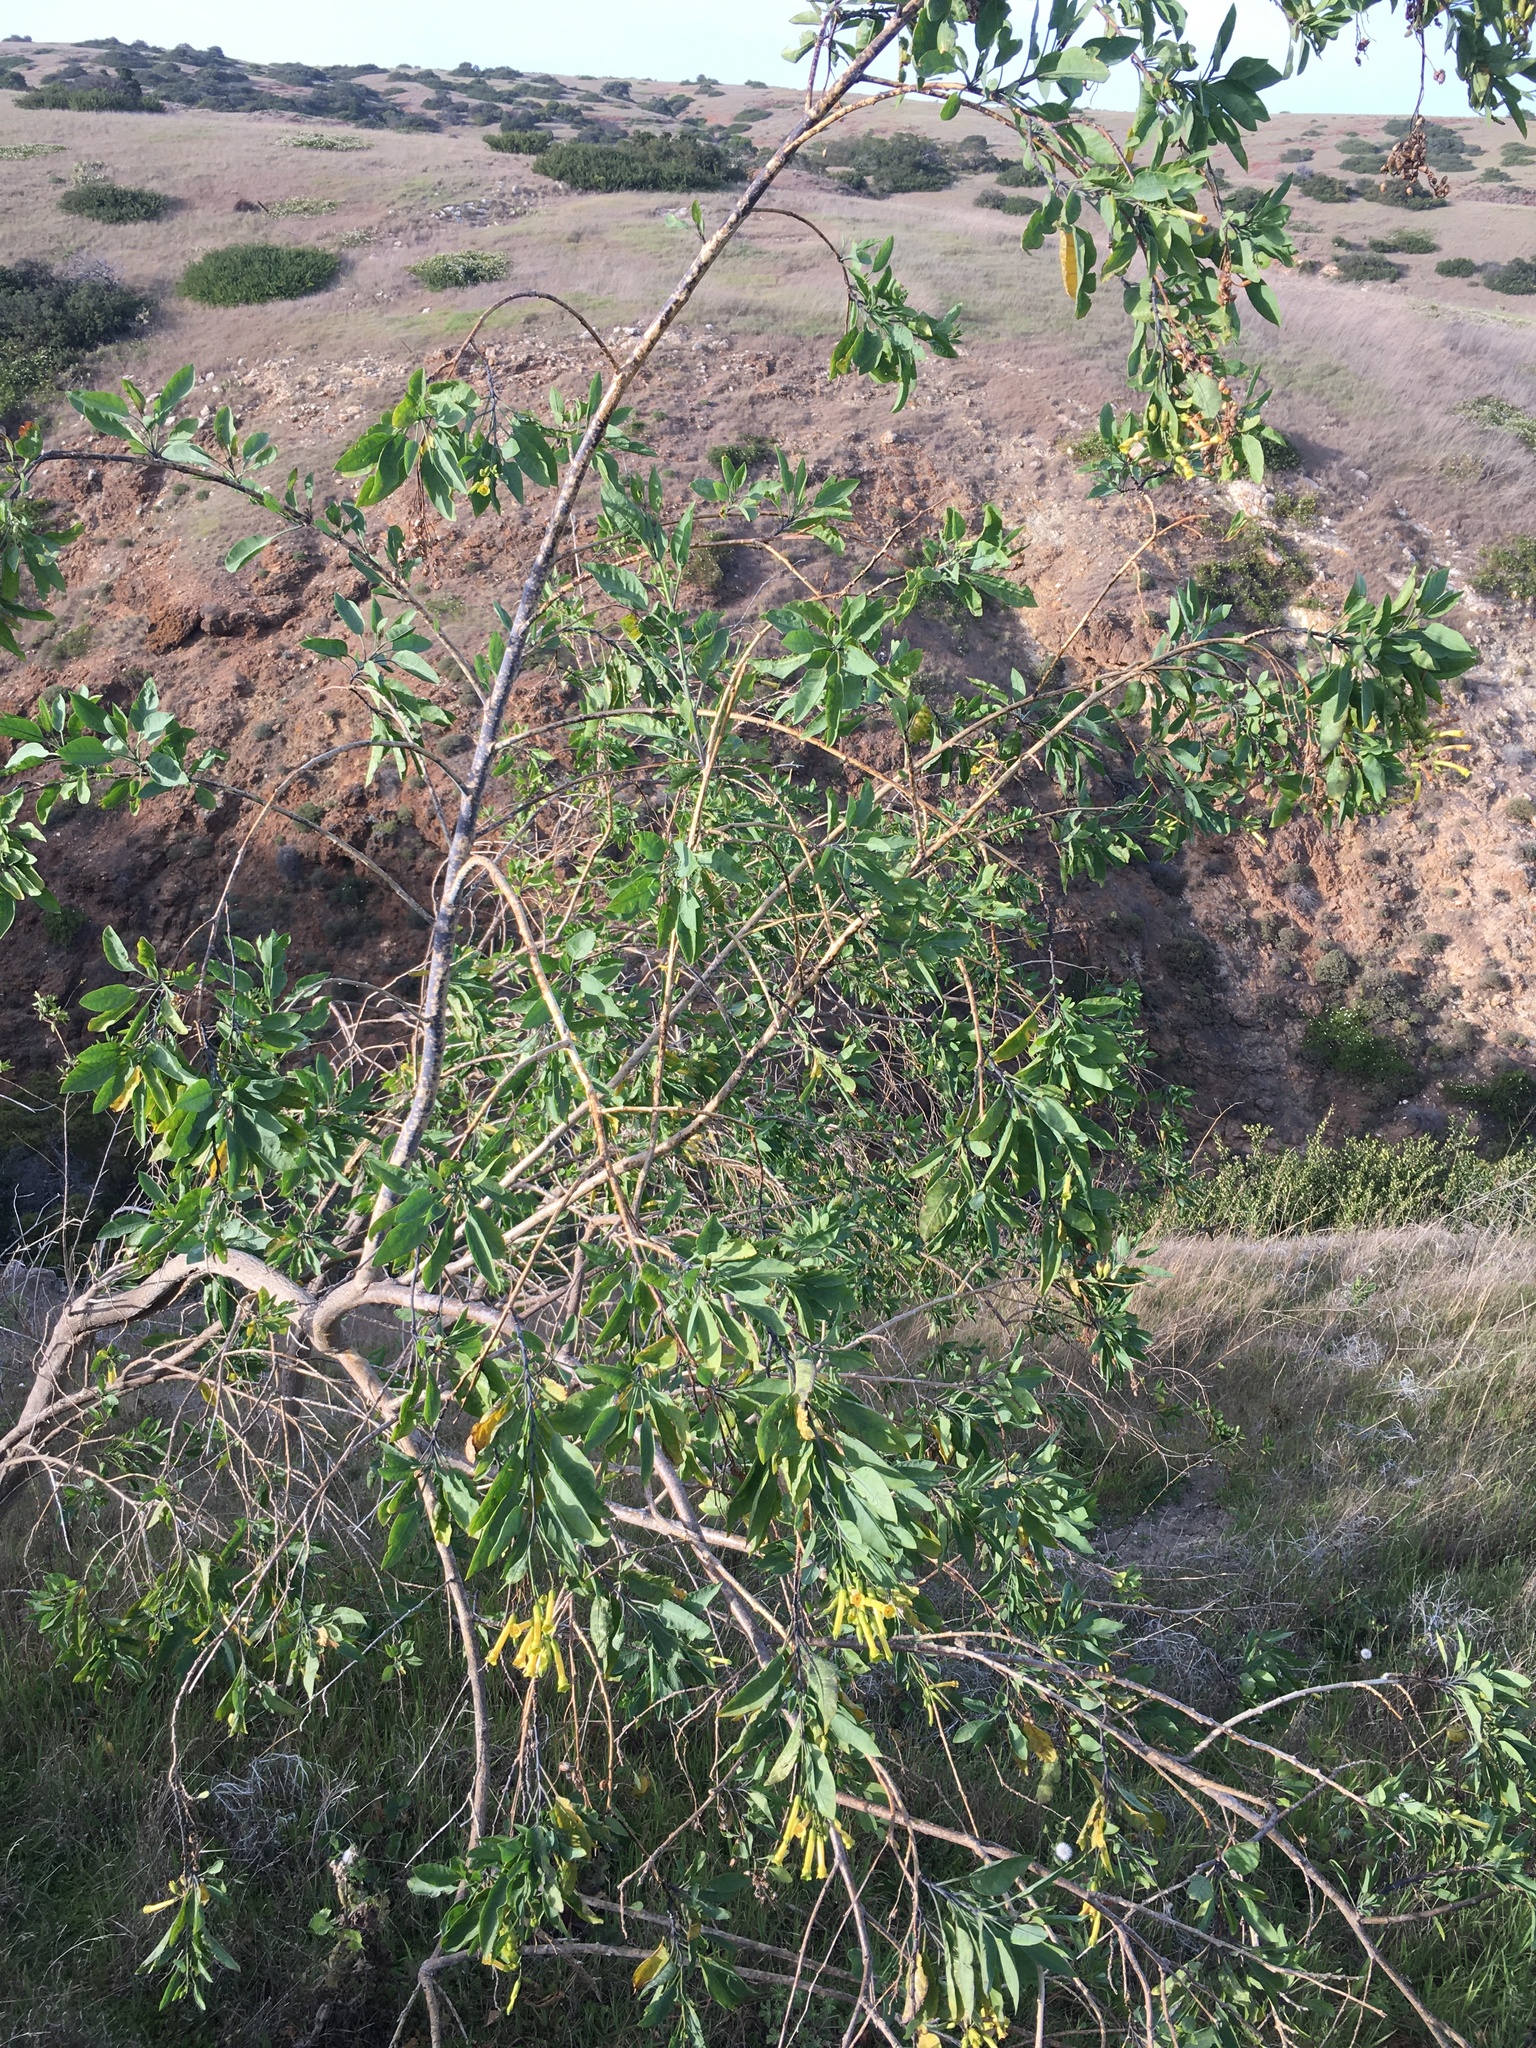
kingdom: Plantae
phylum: Tracheophyta
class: Magnoliopsida
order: Solanales
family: Solanaceae
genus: Nicotiana
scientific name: Nicotiana glauca
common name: Tree tobacco
